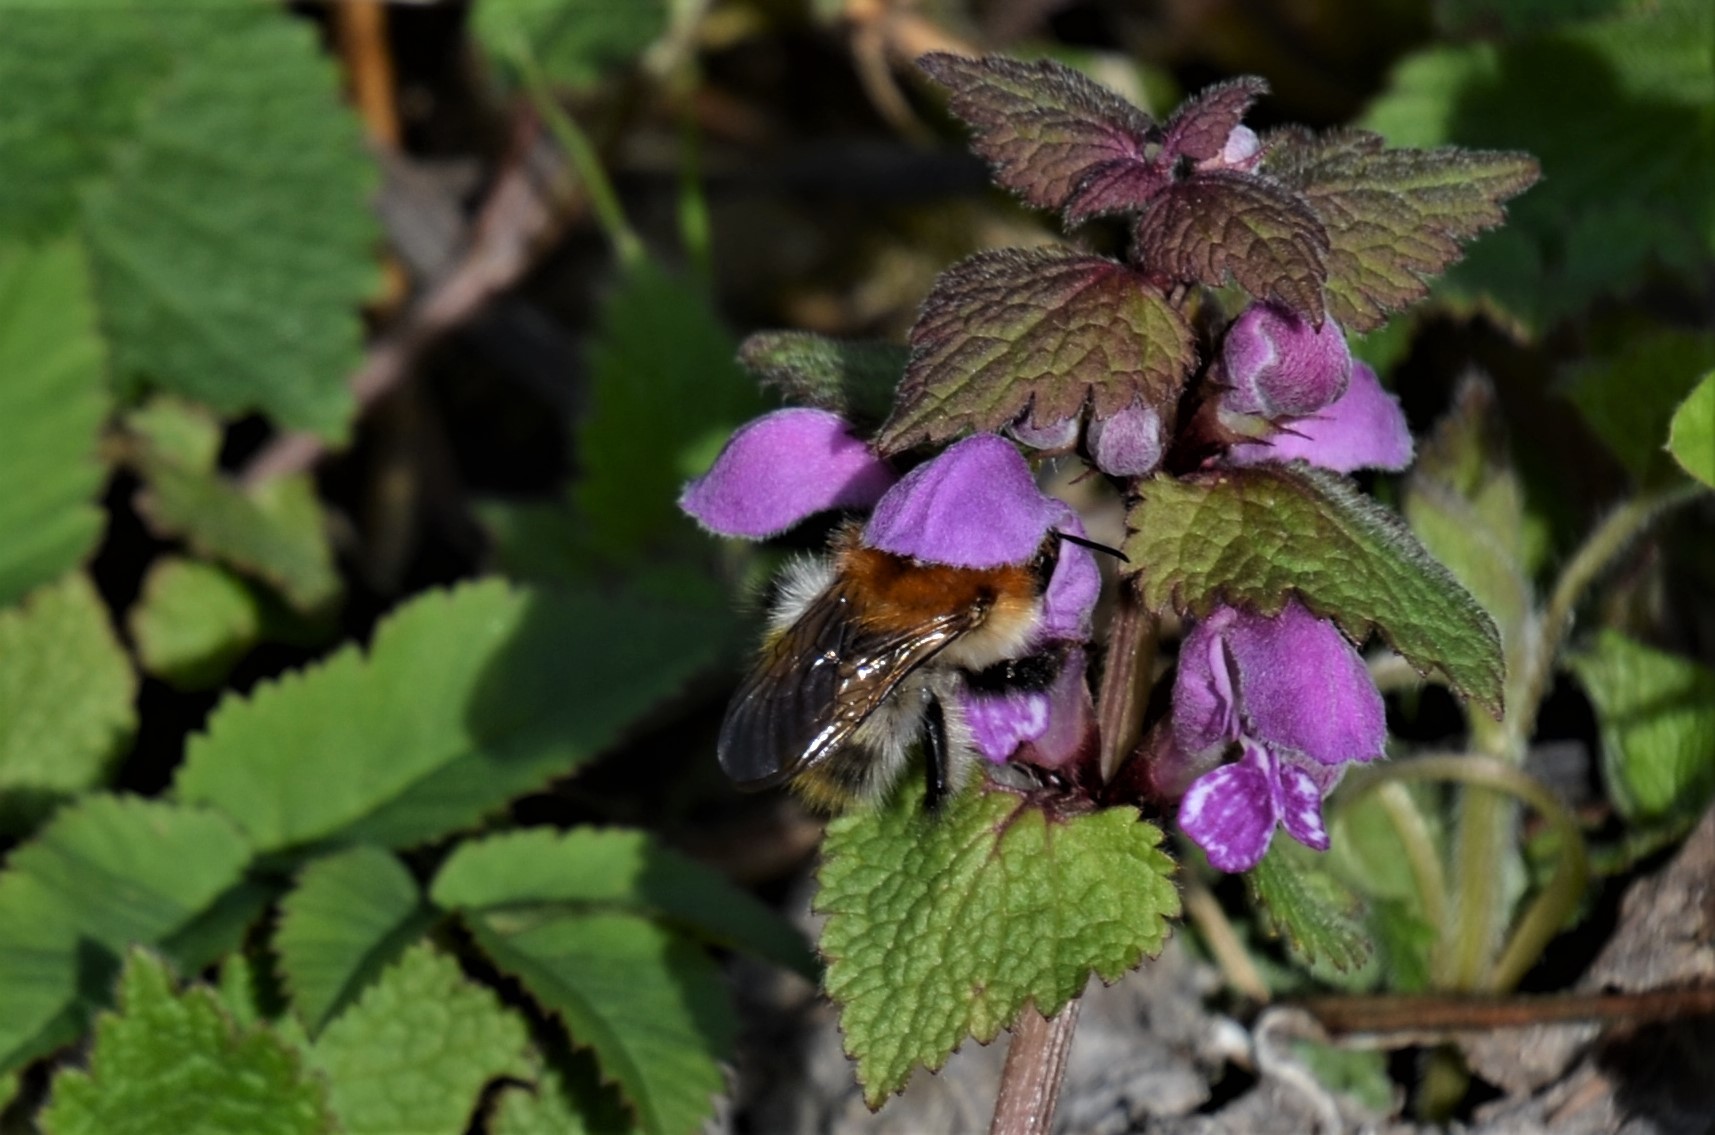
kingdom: Animalia
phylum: Arthropoda
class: Insecta
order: Hymenoptera
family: Apidae
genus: Bombus
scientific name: Bombus pascuorum
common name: Common carder bee
